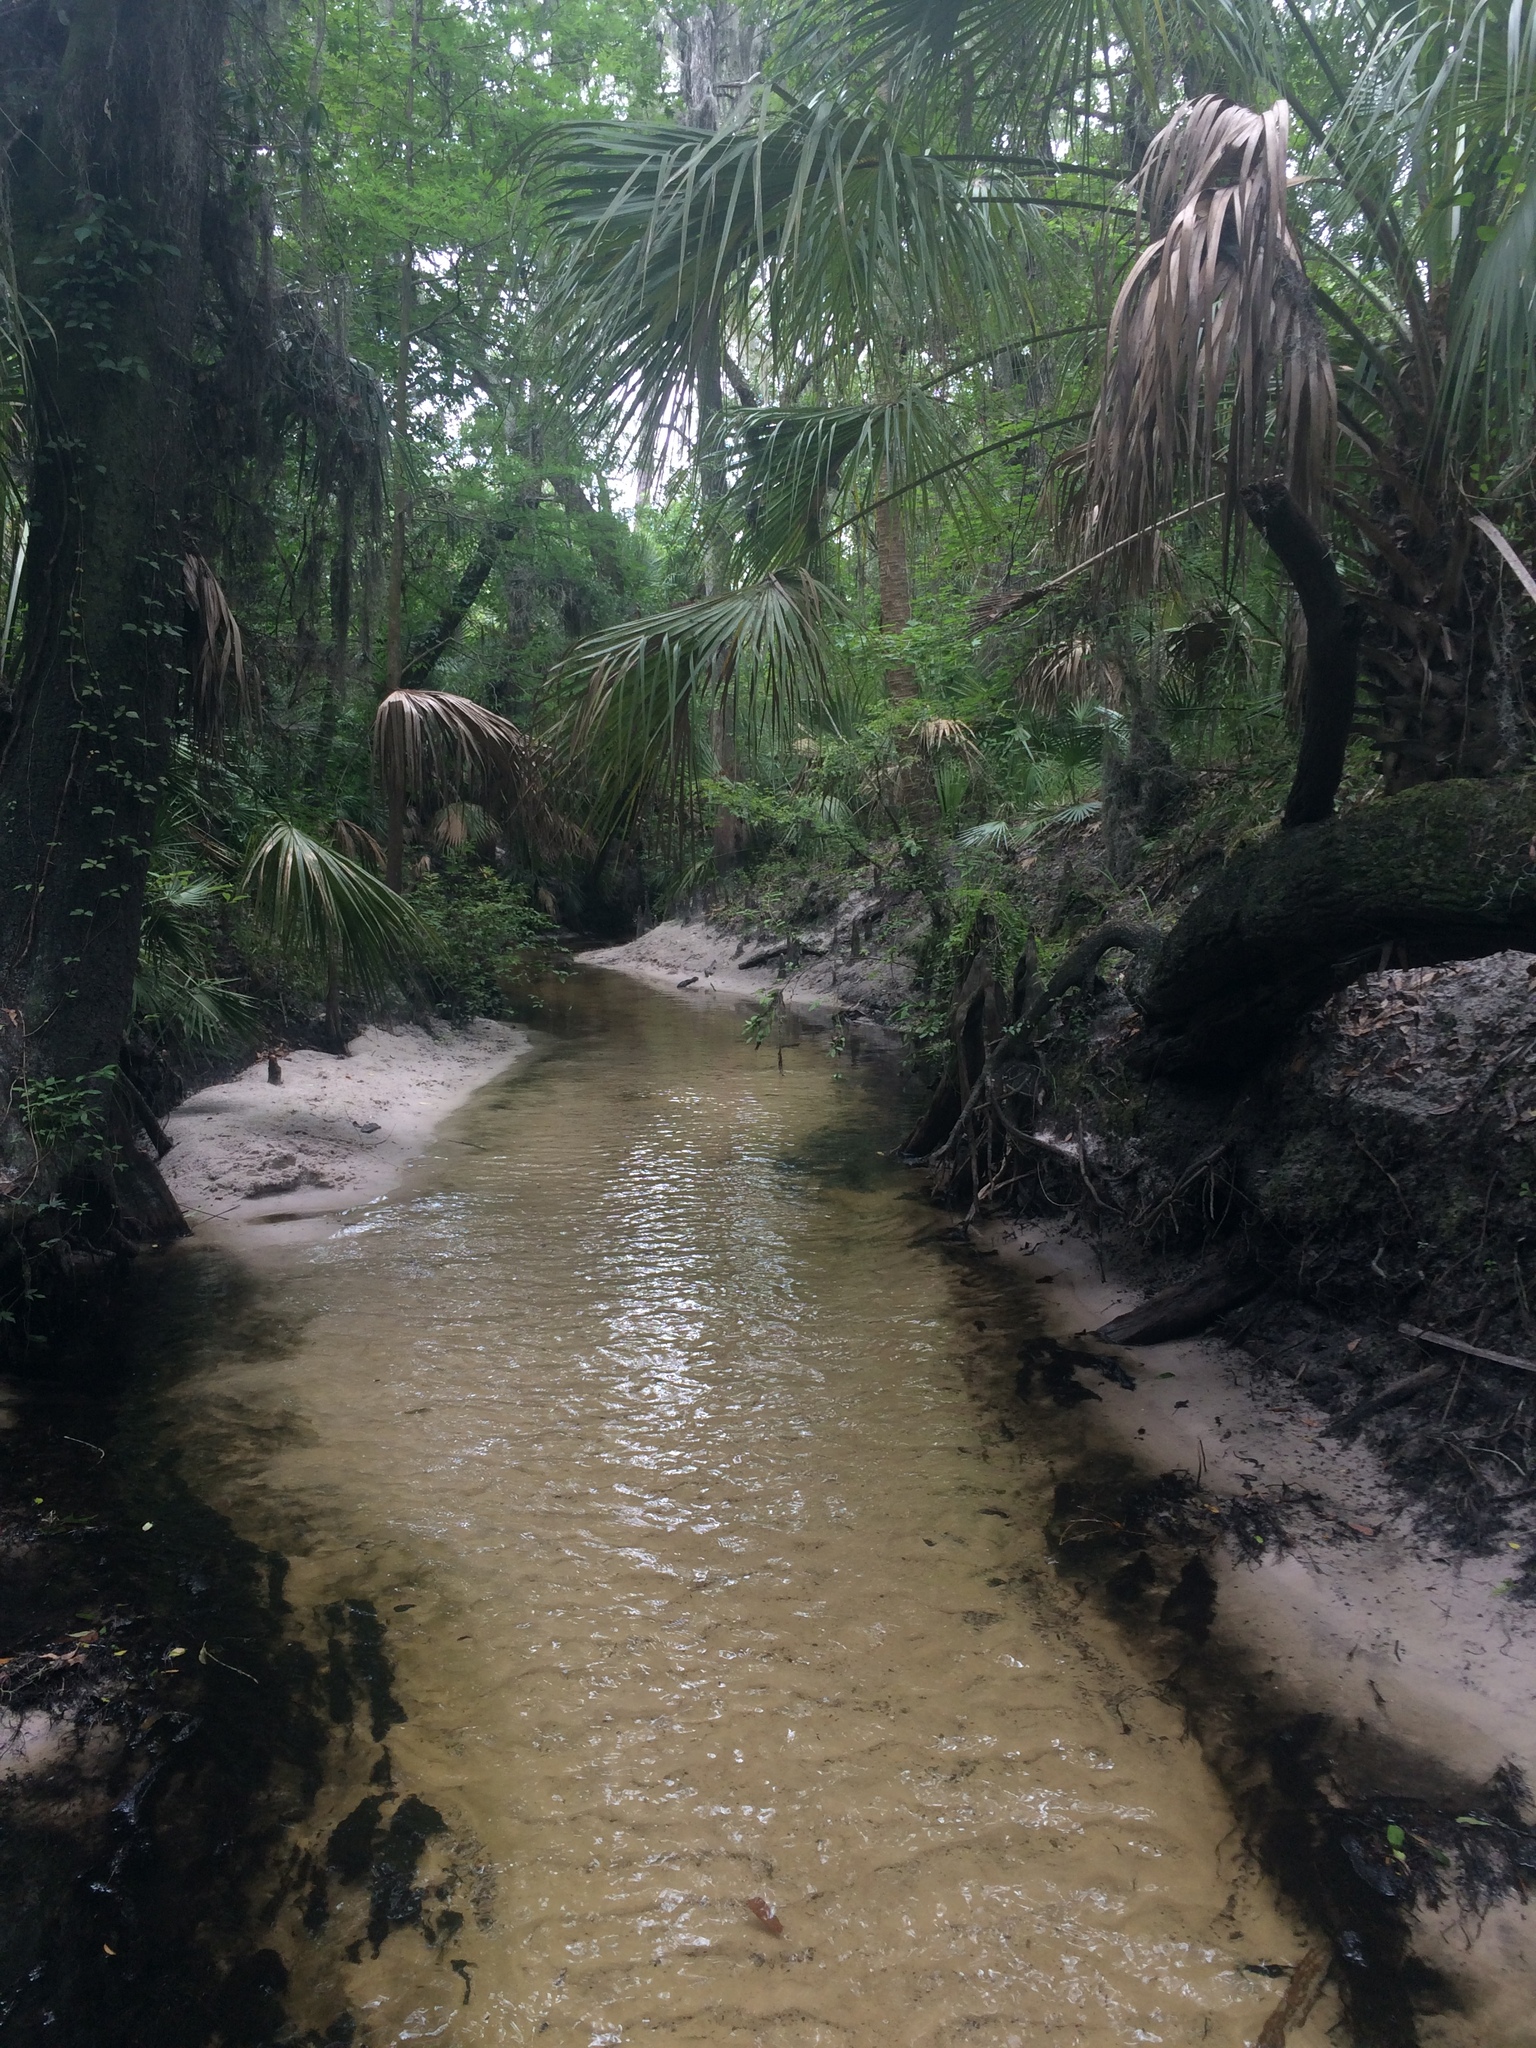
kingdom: Plantae
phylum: Tracheophyta
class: Liliopsida
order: Arecales
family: Arecaceae
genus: Sabal
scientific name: Sabal palmetto
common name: Blue palmetto
